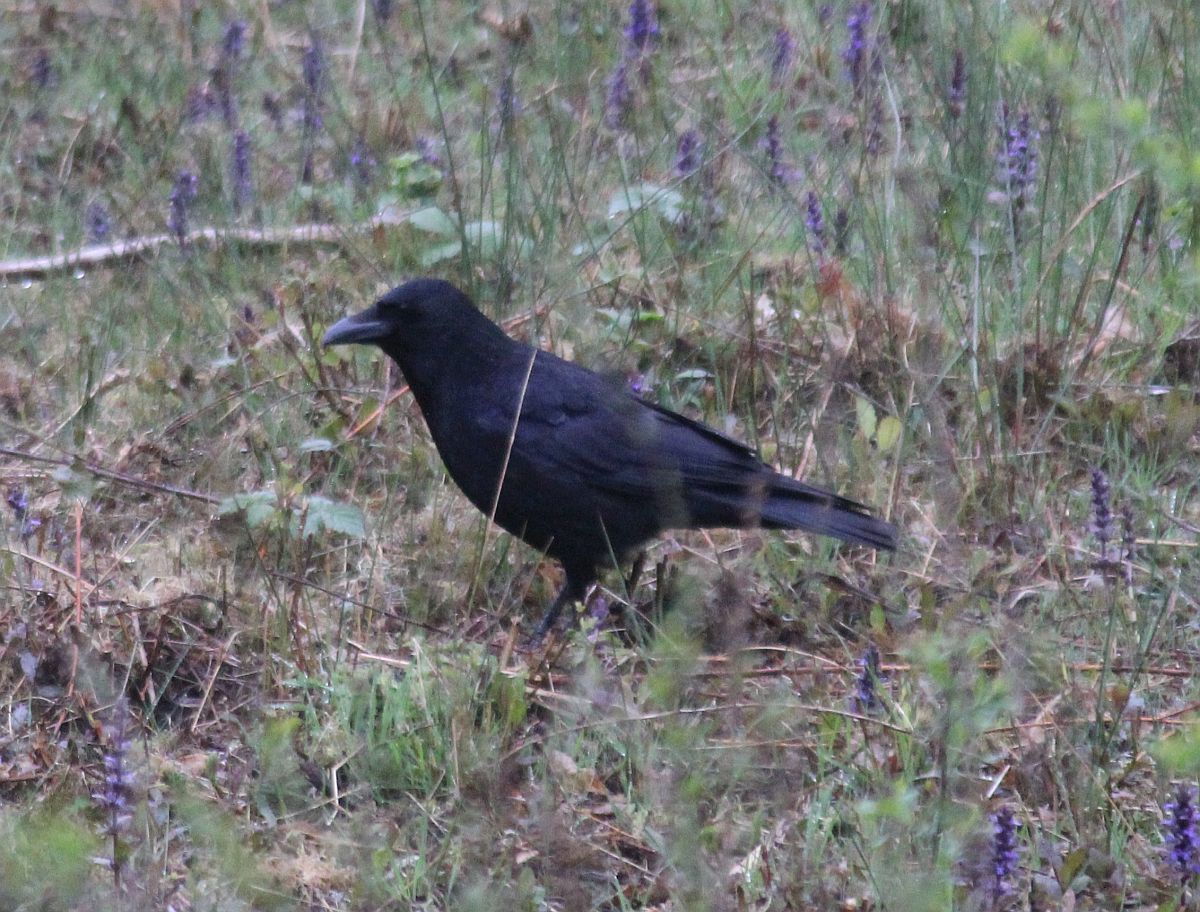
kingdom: Animalia
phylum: Chordata
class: Aves
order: Passeriformes
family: Corvidae
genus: Corvus
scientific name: Corvus corone
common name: Carrion crow
